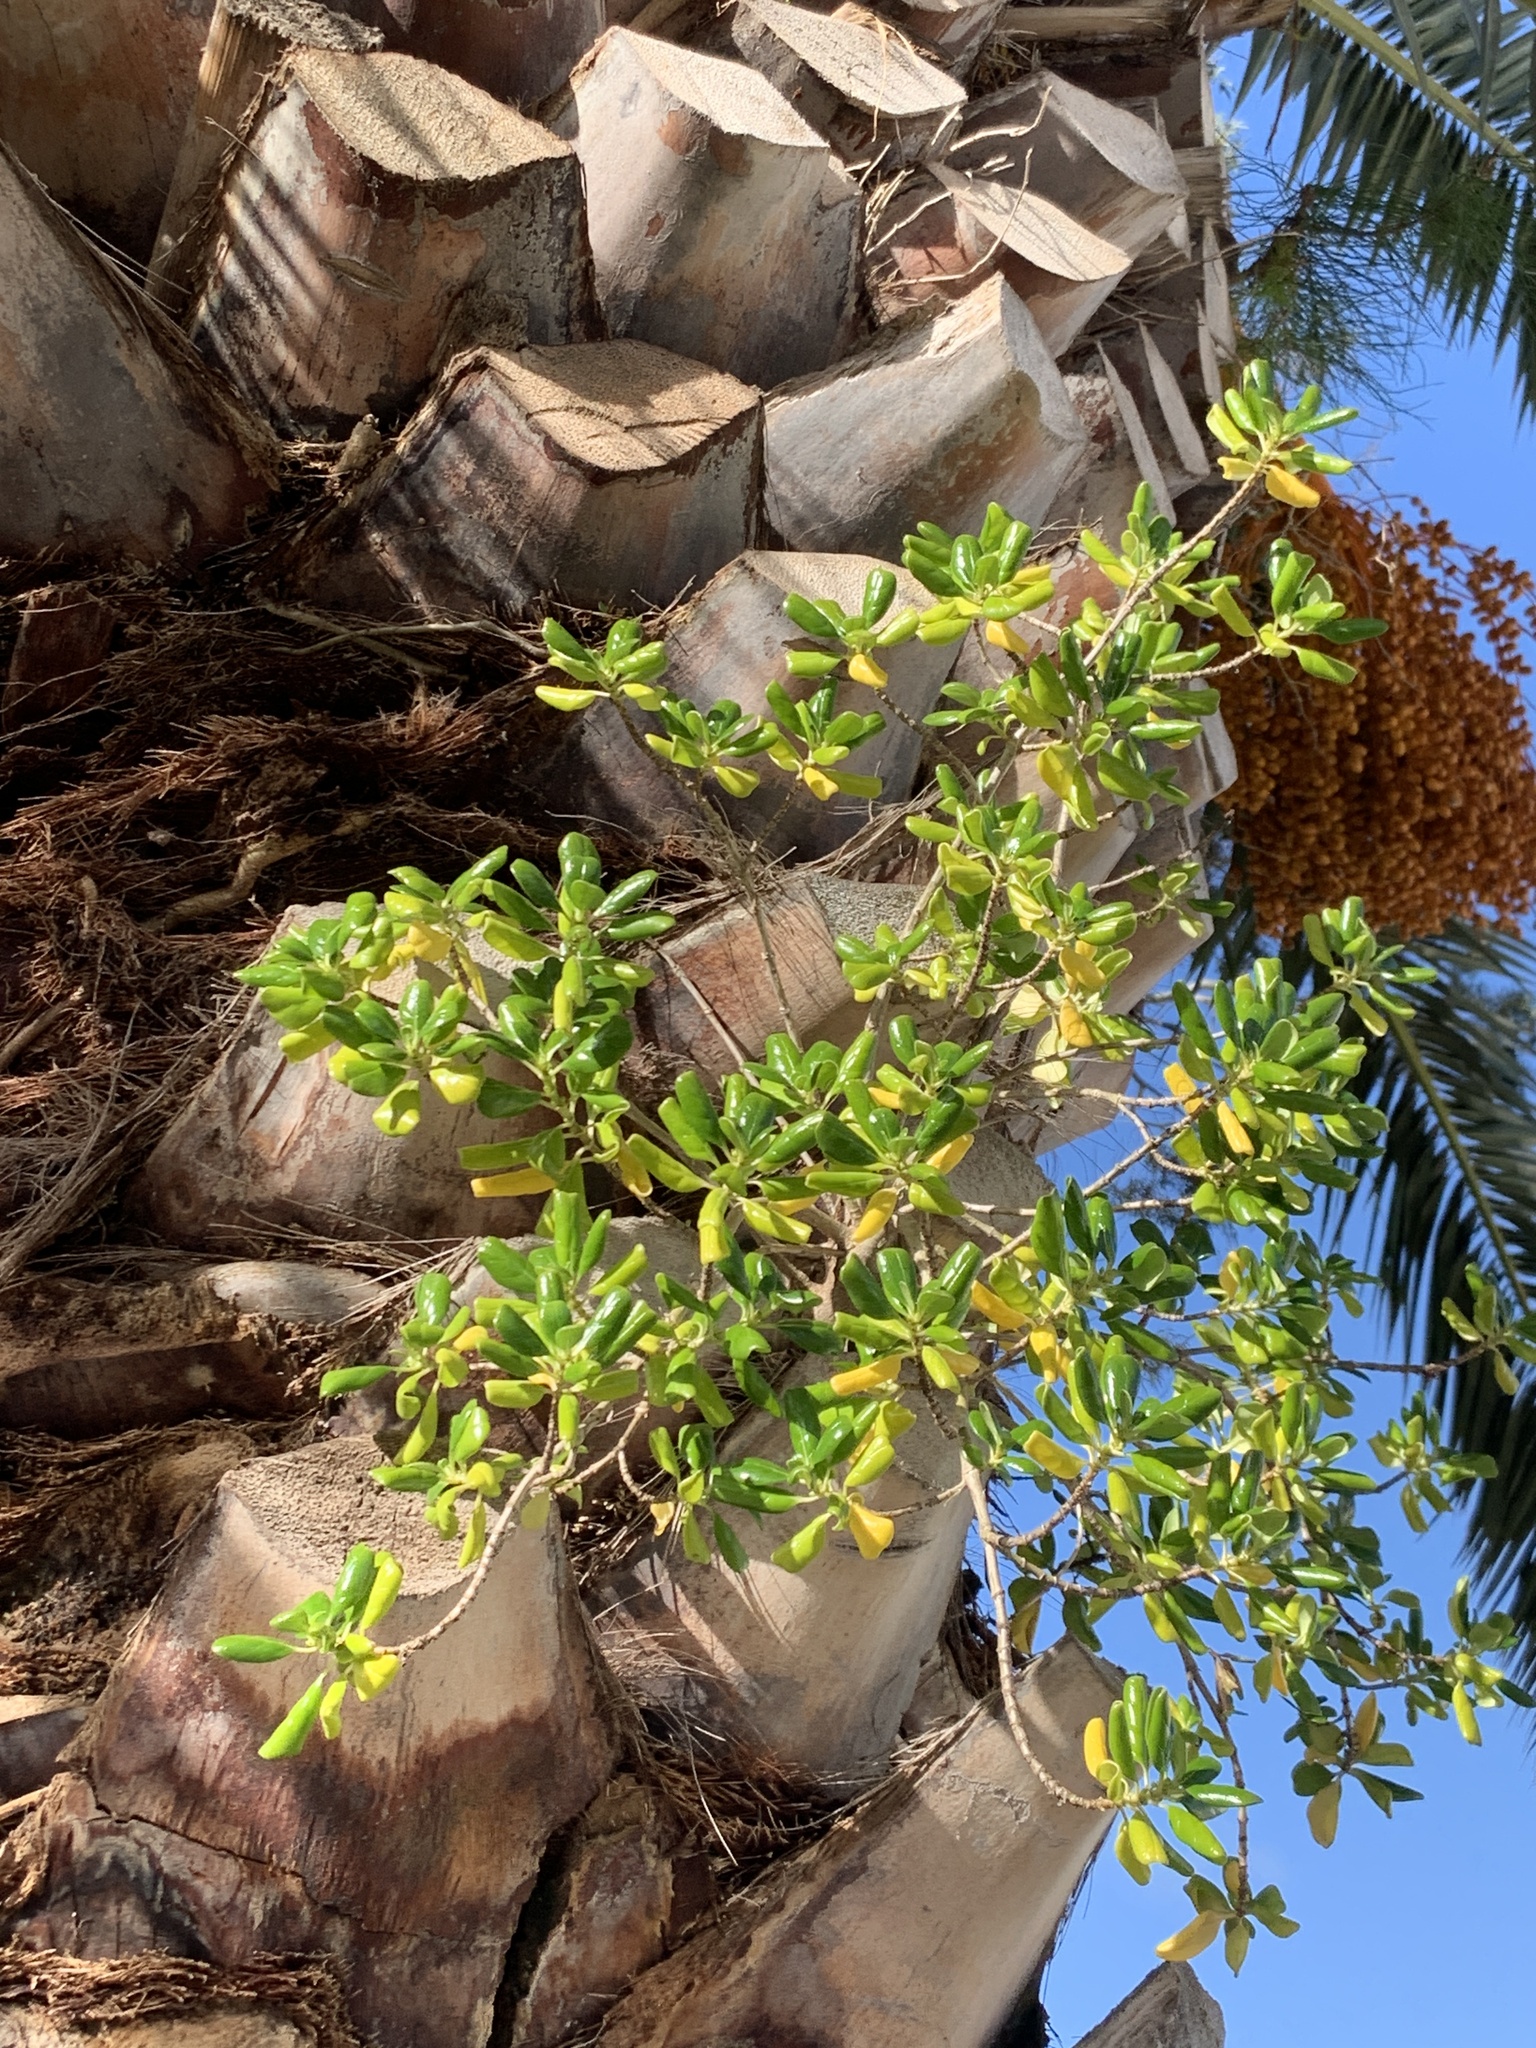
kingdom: Plantae
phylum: Tracheophyta
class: Magnoliopsida
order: Gentianales
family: Rubiaceae
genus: Coprosma
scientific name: Coprosma repens
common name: Tree bedstraw
